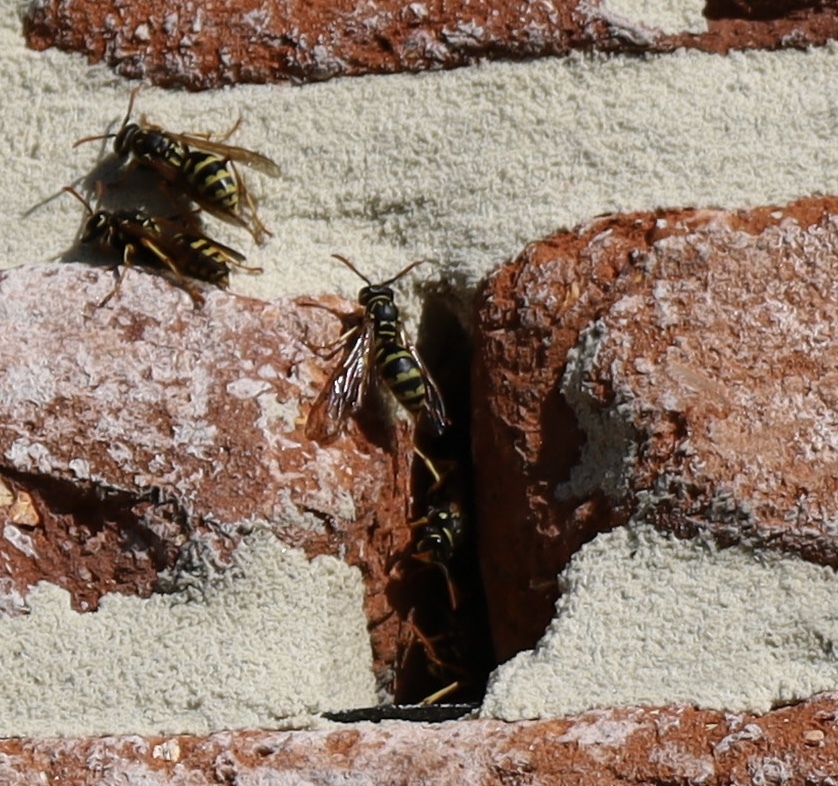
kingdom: Animalia
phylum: Arthropoda
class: Insecta
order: Hymenoptera
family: Eumenidae
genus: Polistes
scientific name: Polistes dominula
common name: Paper wasp
